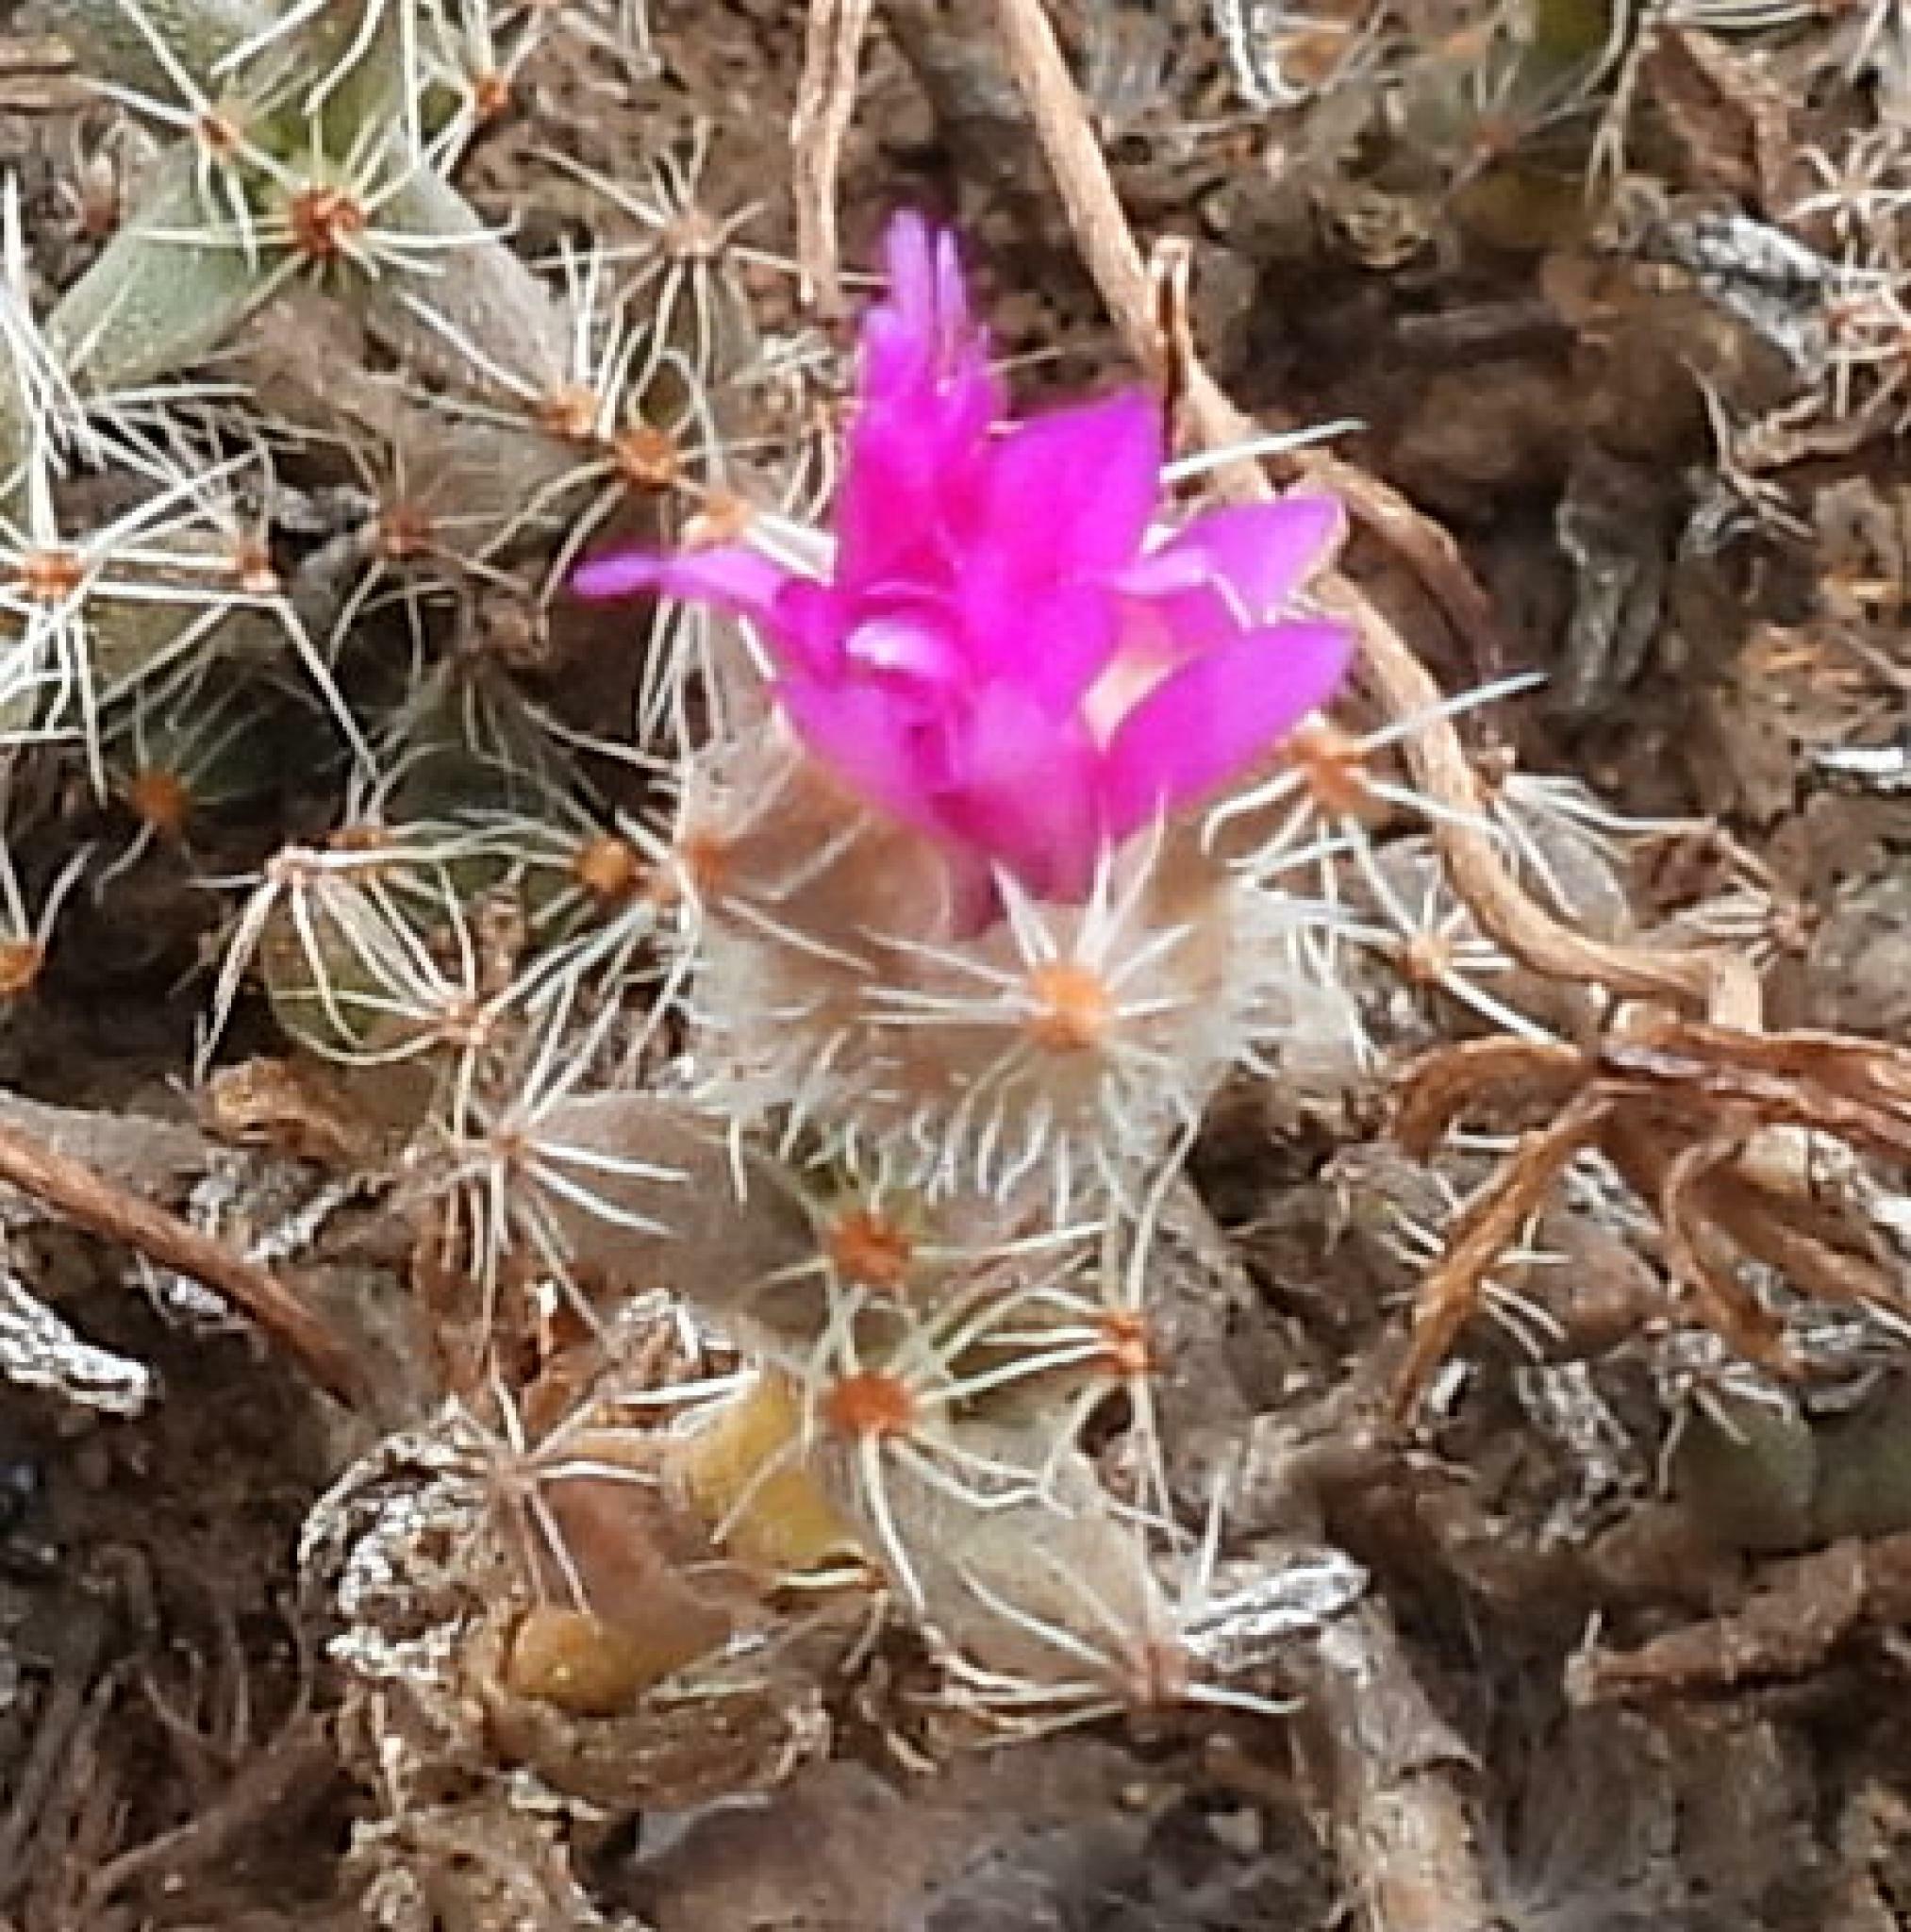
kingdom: Plantae
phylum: Tracheophyta
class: Magnoliopsida
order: Caryophyllales
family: Aizoaceae
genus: Trichodiadema
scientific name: Trichodiadema intonsum
